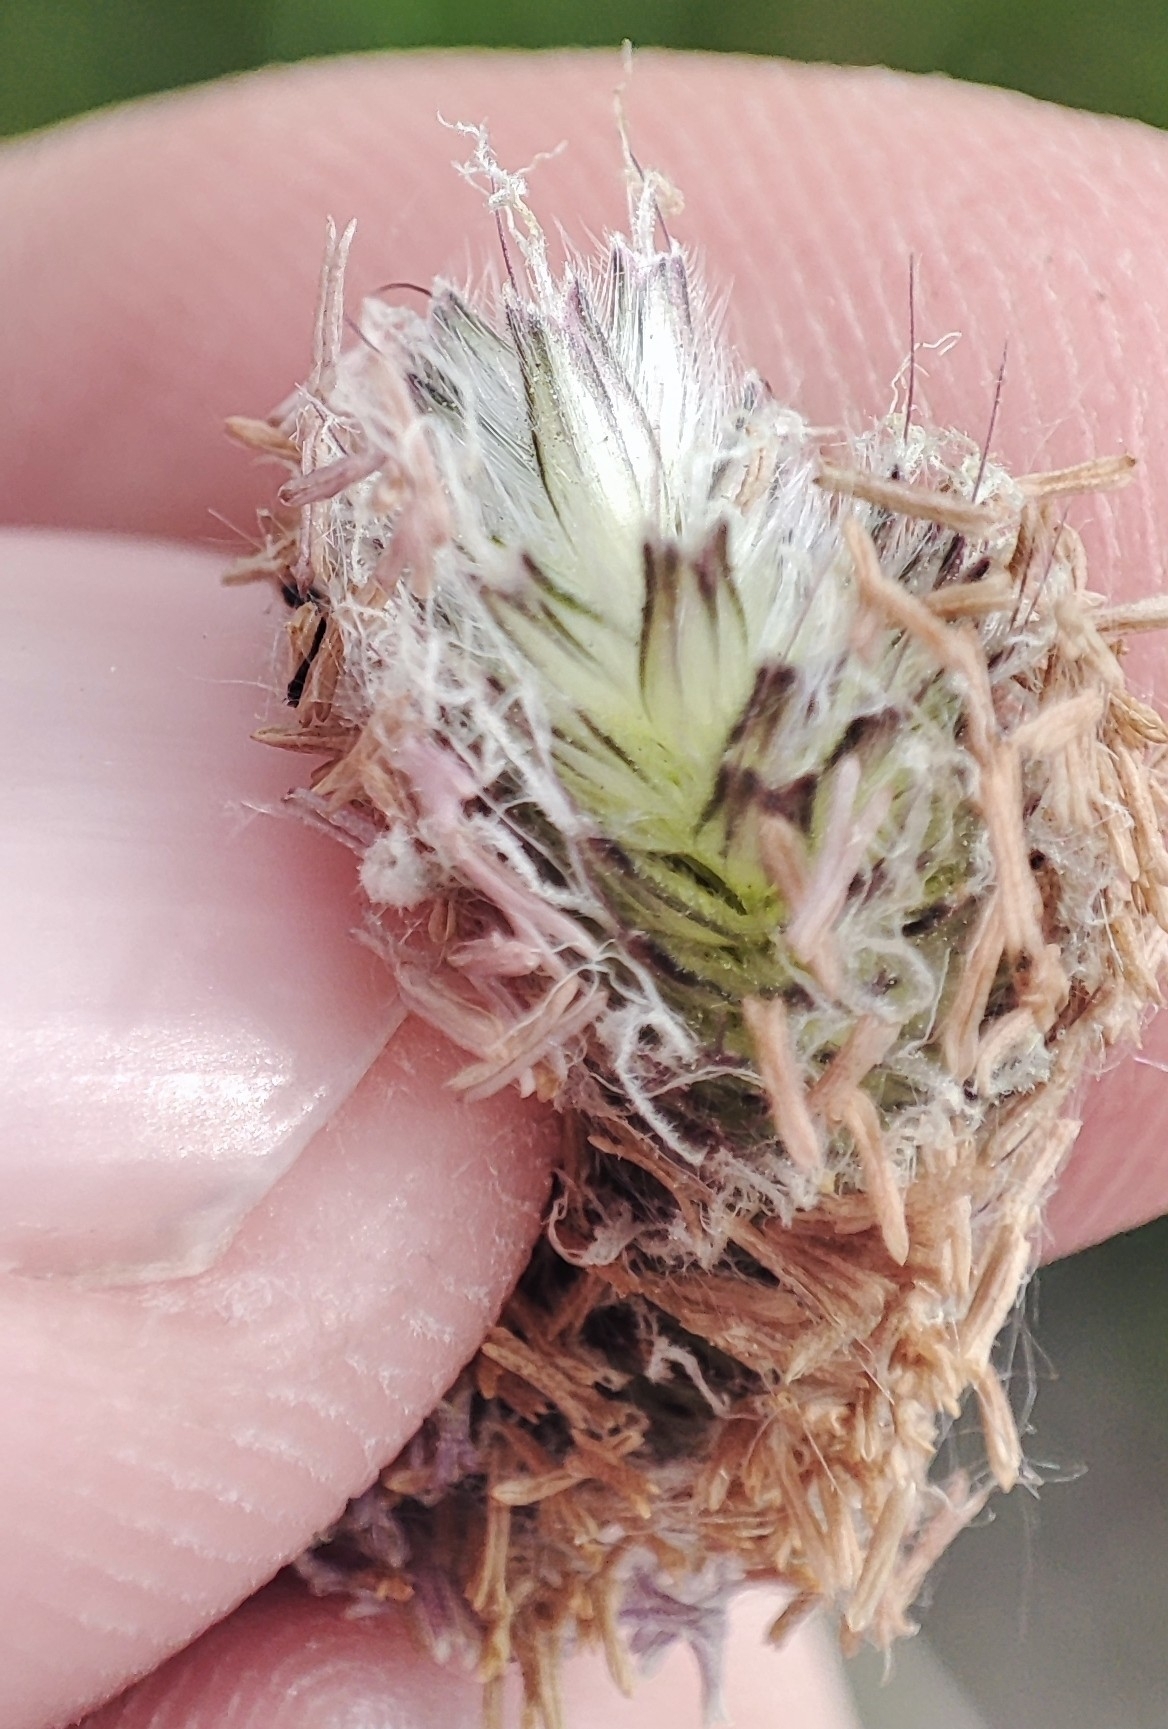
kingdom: Plantae
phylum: Tracheophyta
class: Liliopsida
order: Poales
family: Poaceae
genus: Alopecurus
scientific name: Alopecurus pratensis
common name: Meadow foxtail
